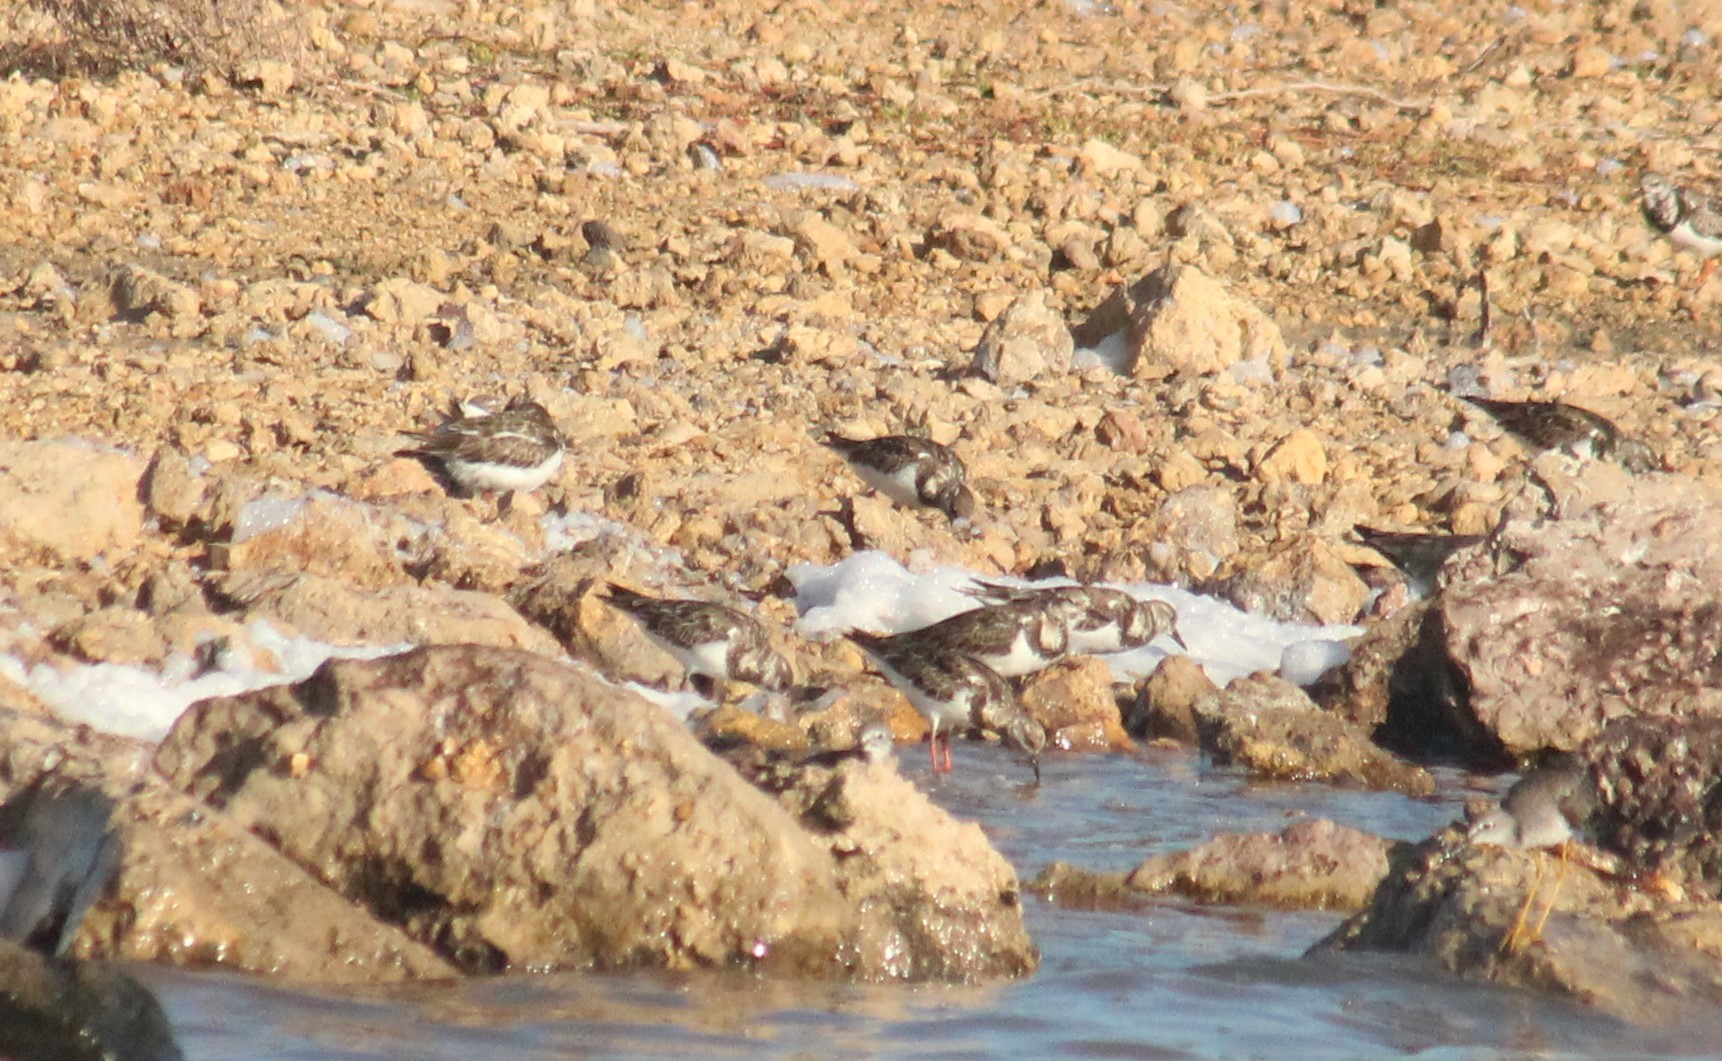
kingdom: Animalia
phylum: Chordata
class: Aves
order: Charadriiformes
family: Scolopacidae
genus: Arenaria
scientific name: Arenaria interpres
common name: Ruddy turnstone
